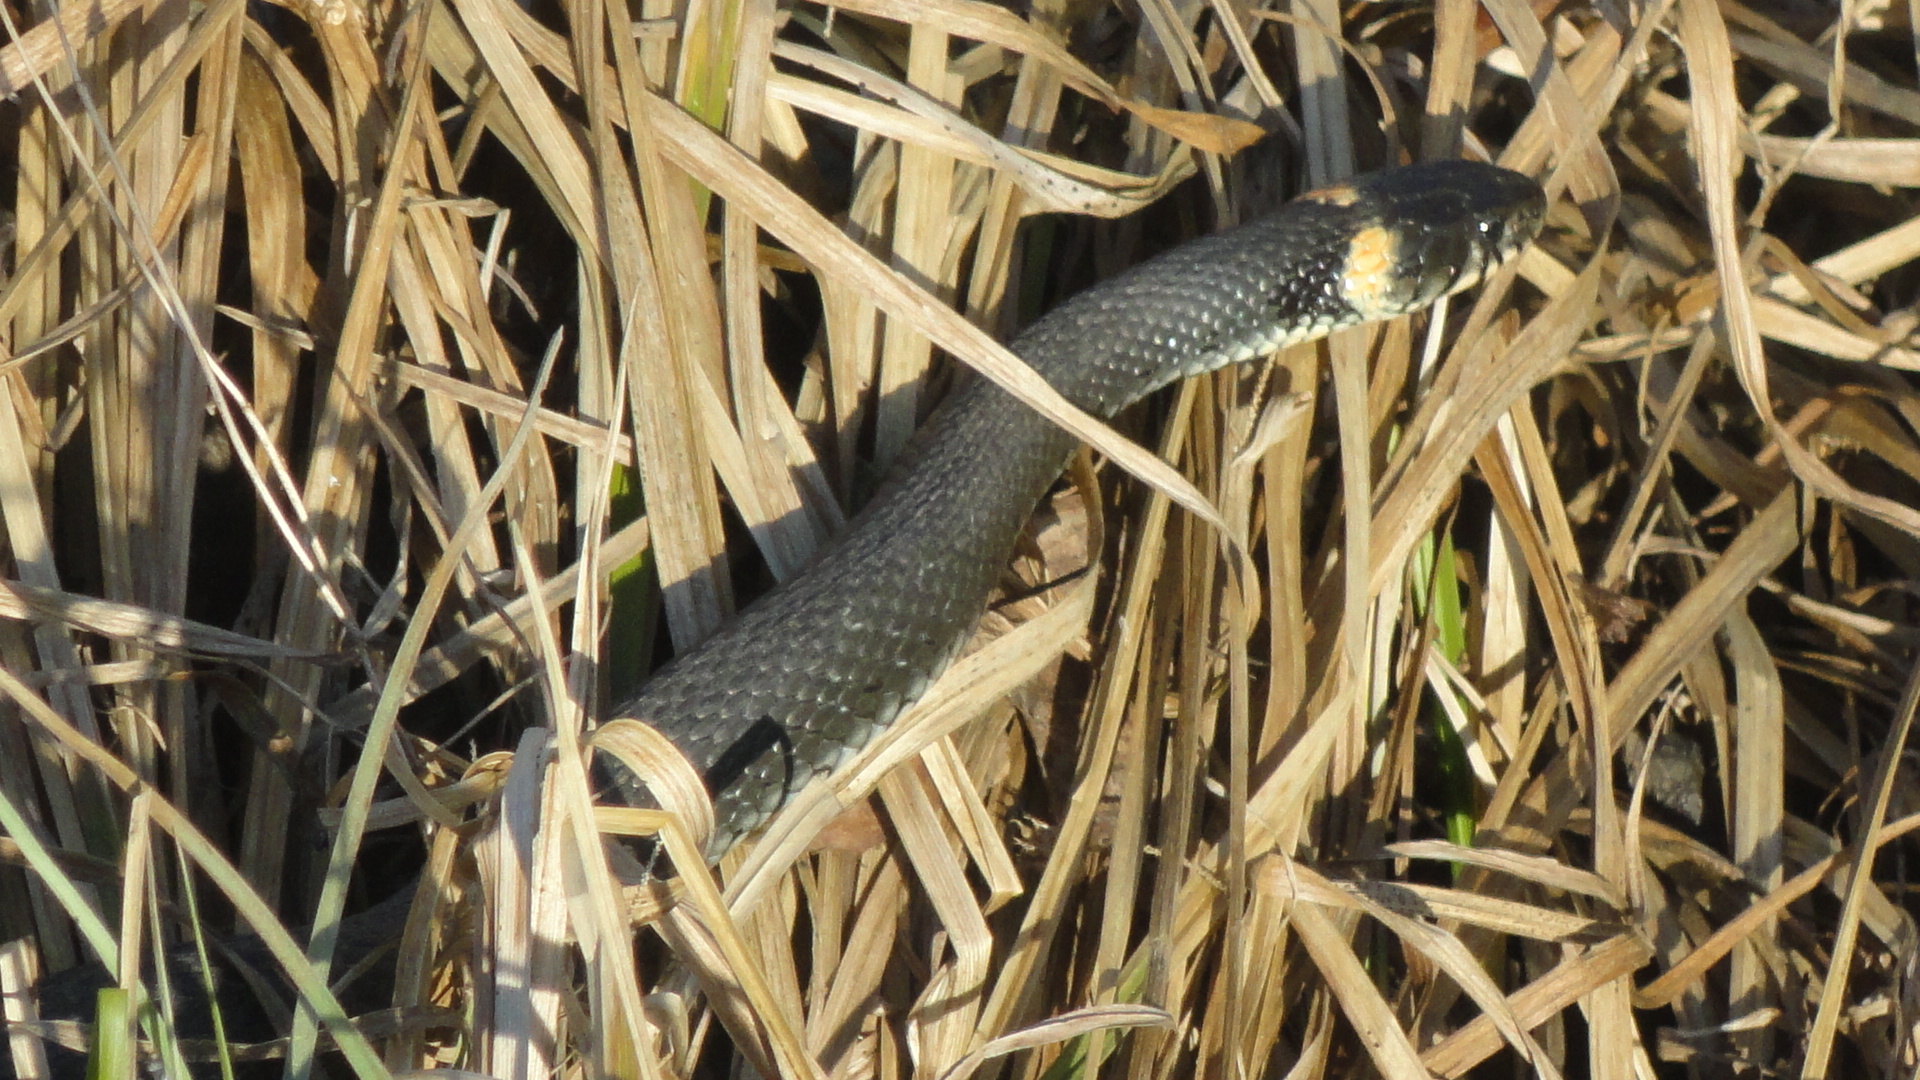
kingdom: Animalia
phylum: Chordata
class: Squamata
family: Colubridae
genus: Natrix
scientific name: Natrix natrix
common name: Grass snake
